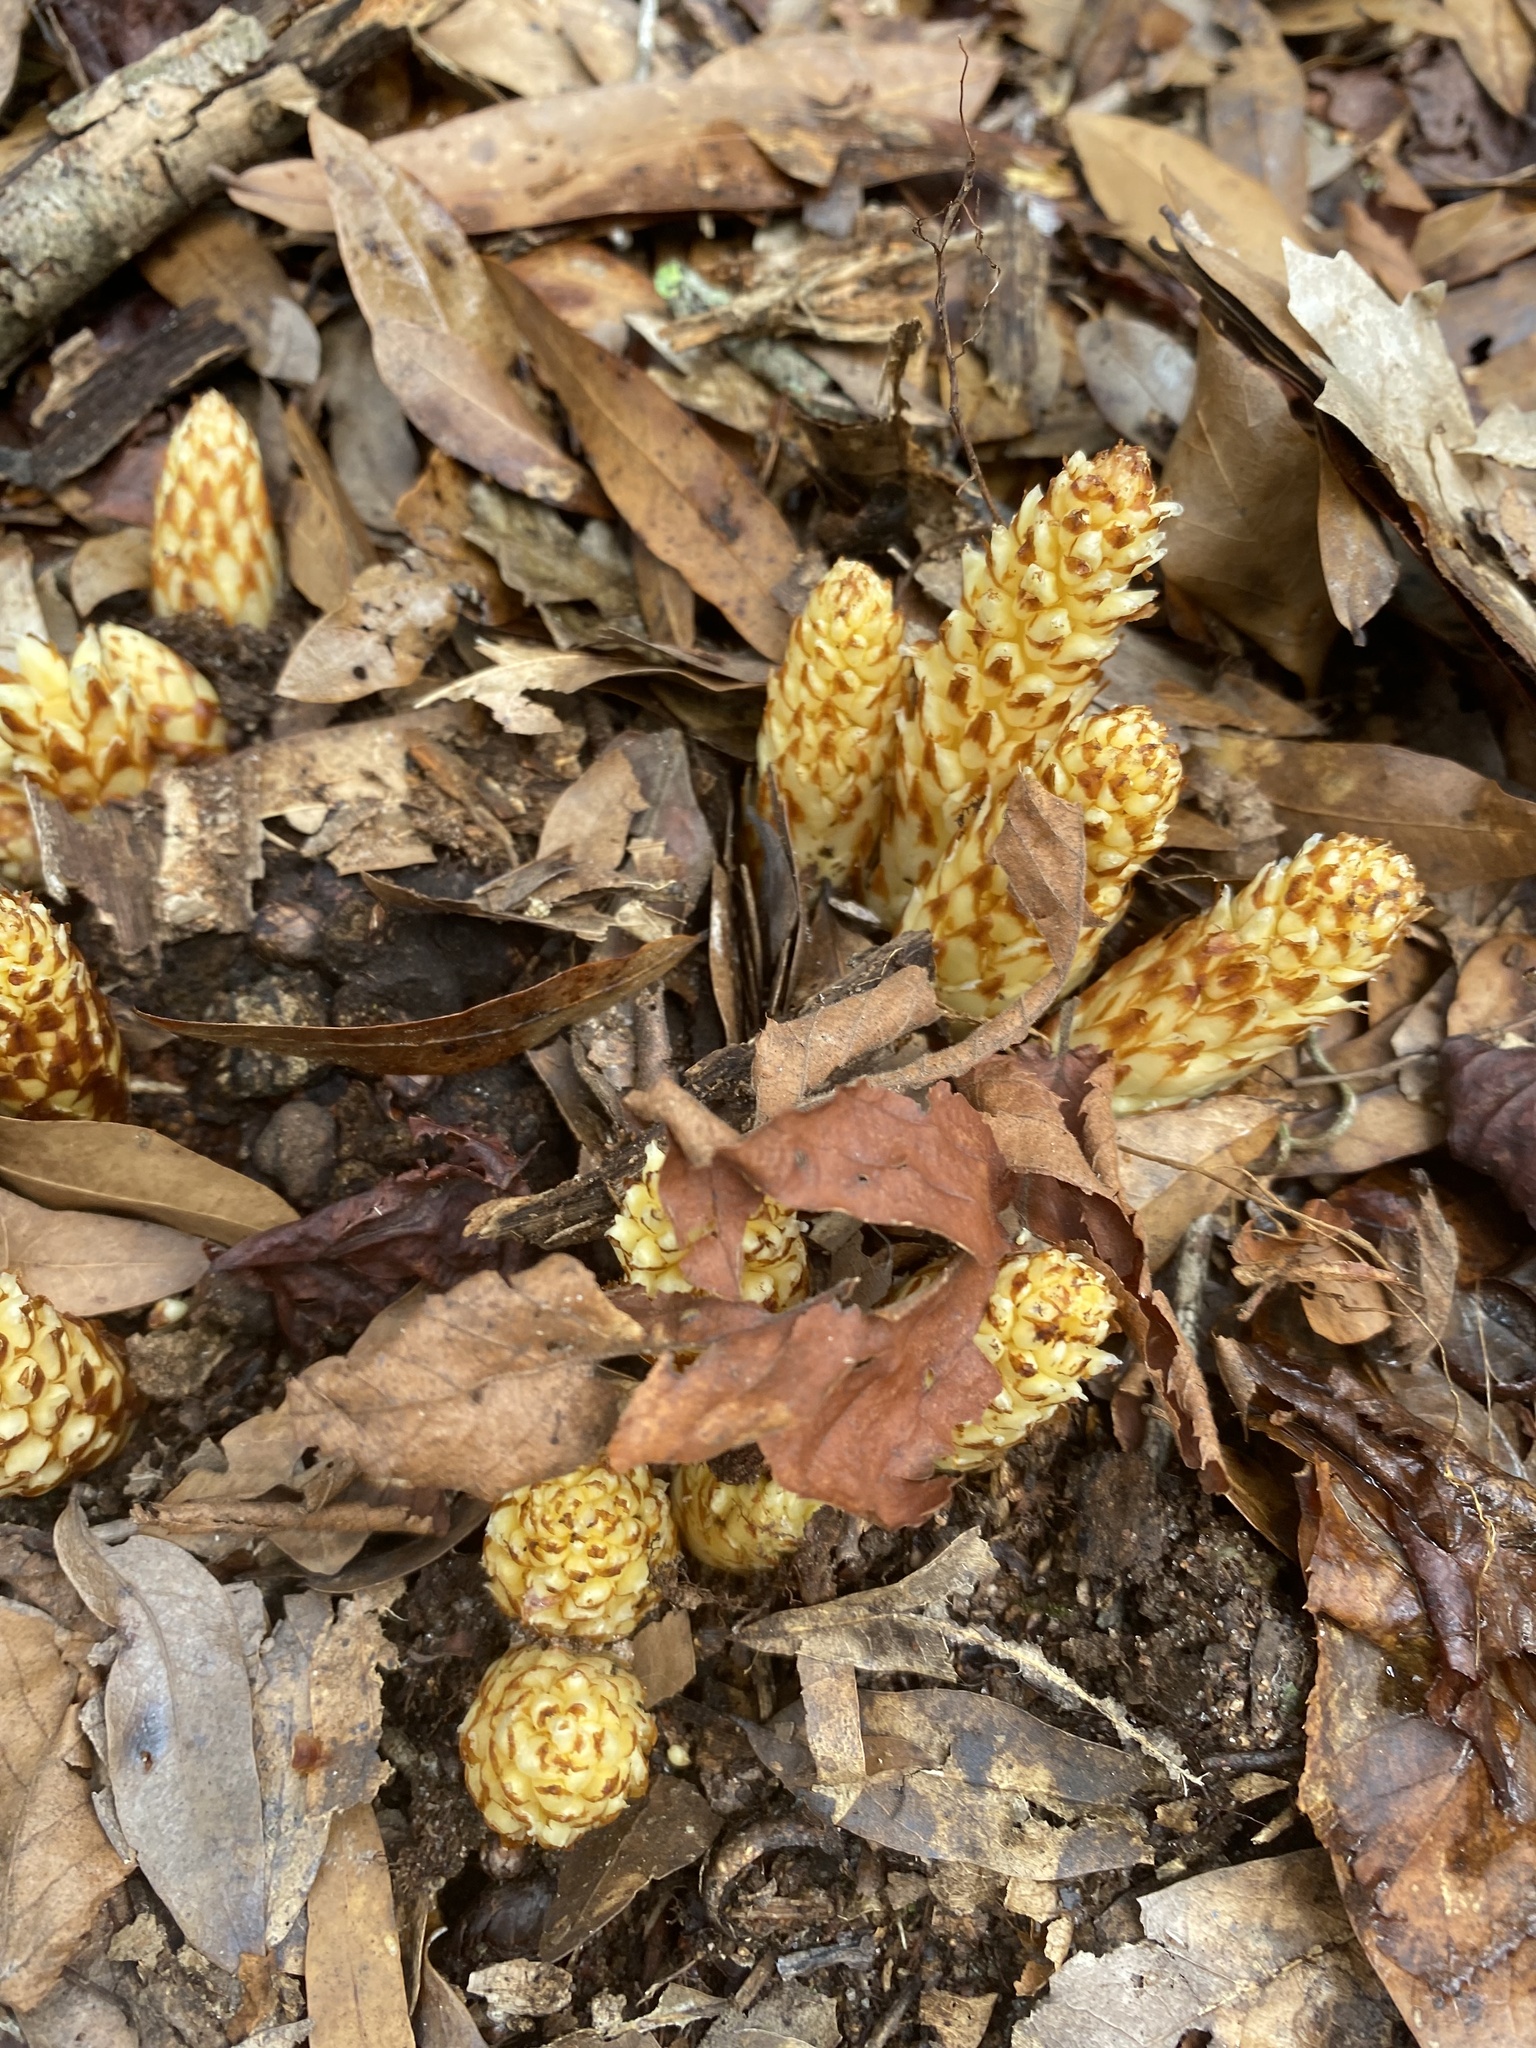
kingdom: Plantae
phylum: Tracheophyta
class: Magnoliopsida
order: Lamiales
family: Orobanchaceae
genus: Conopholis
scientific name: Conopholis americana
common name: American cancer-root
